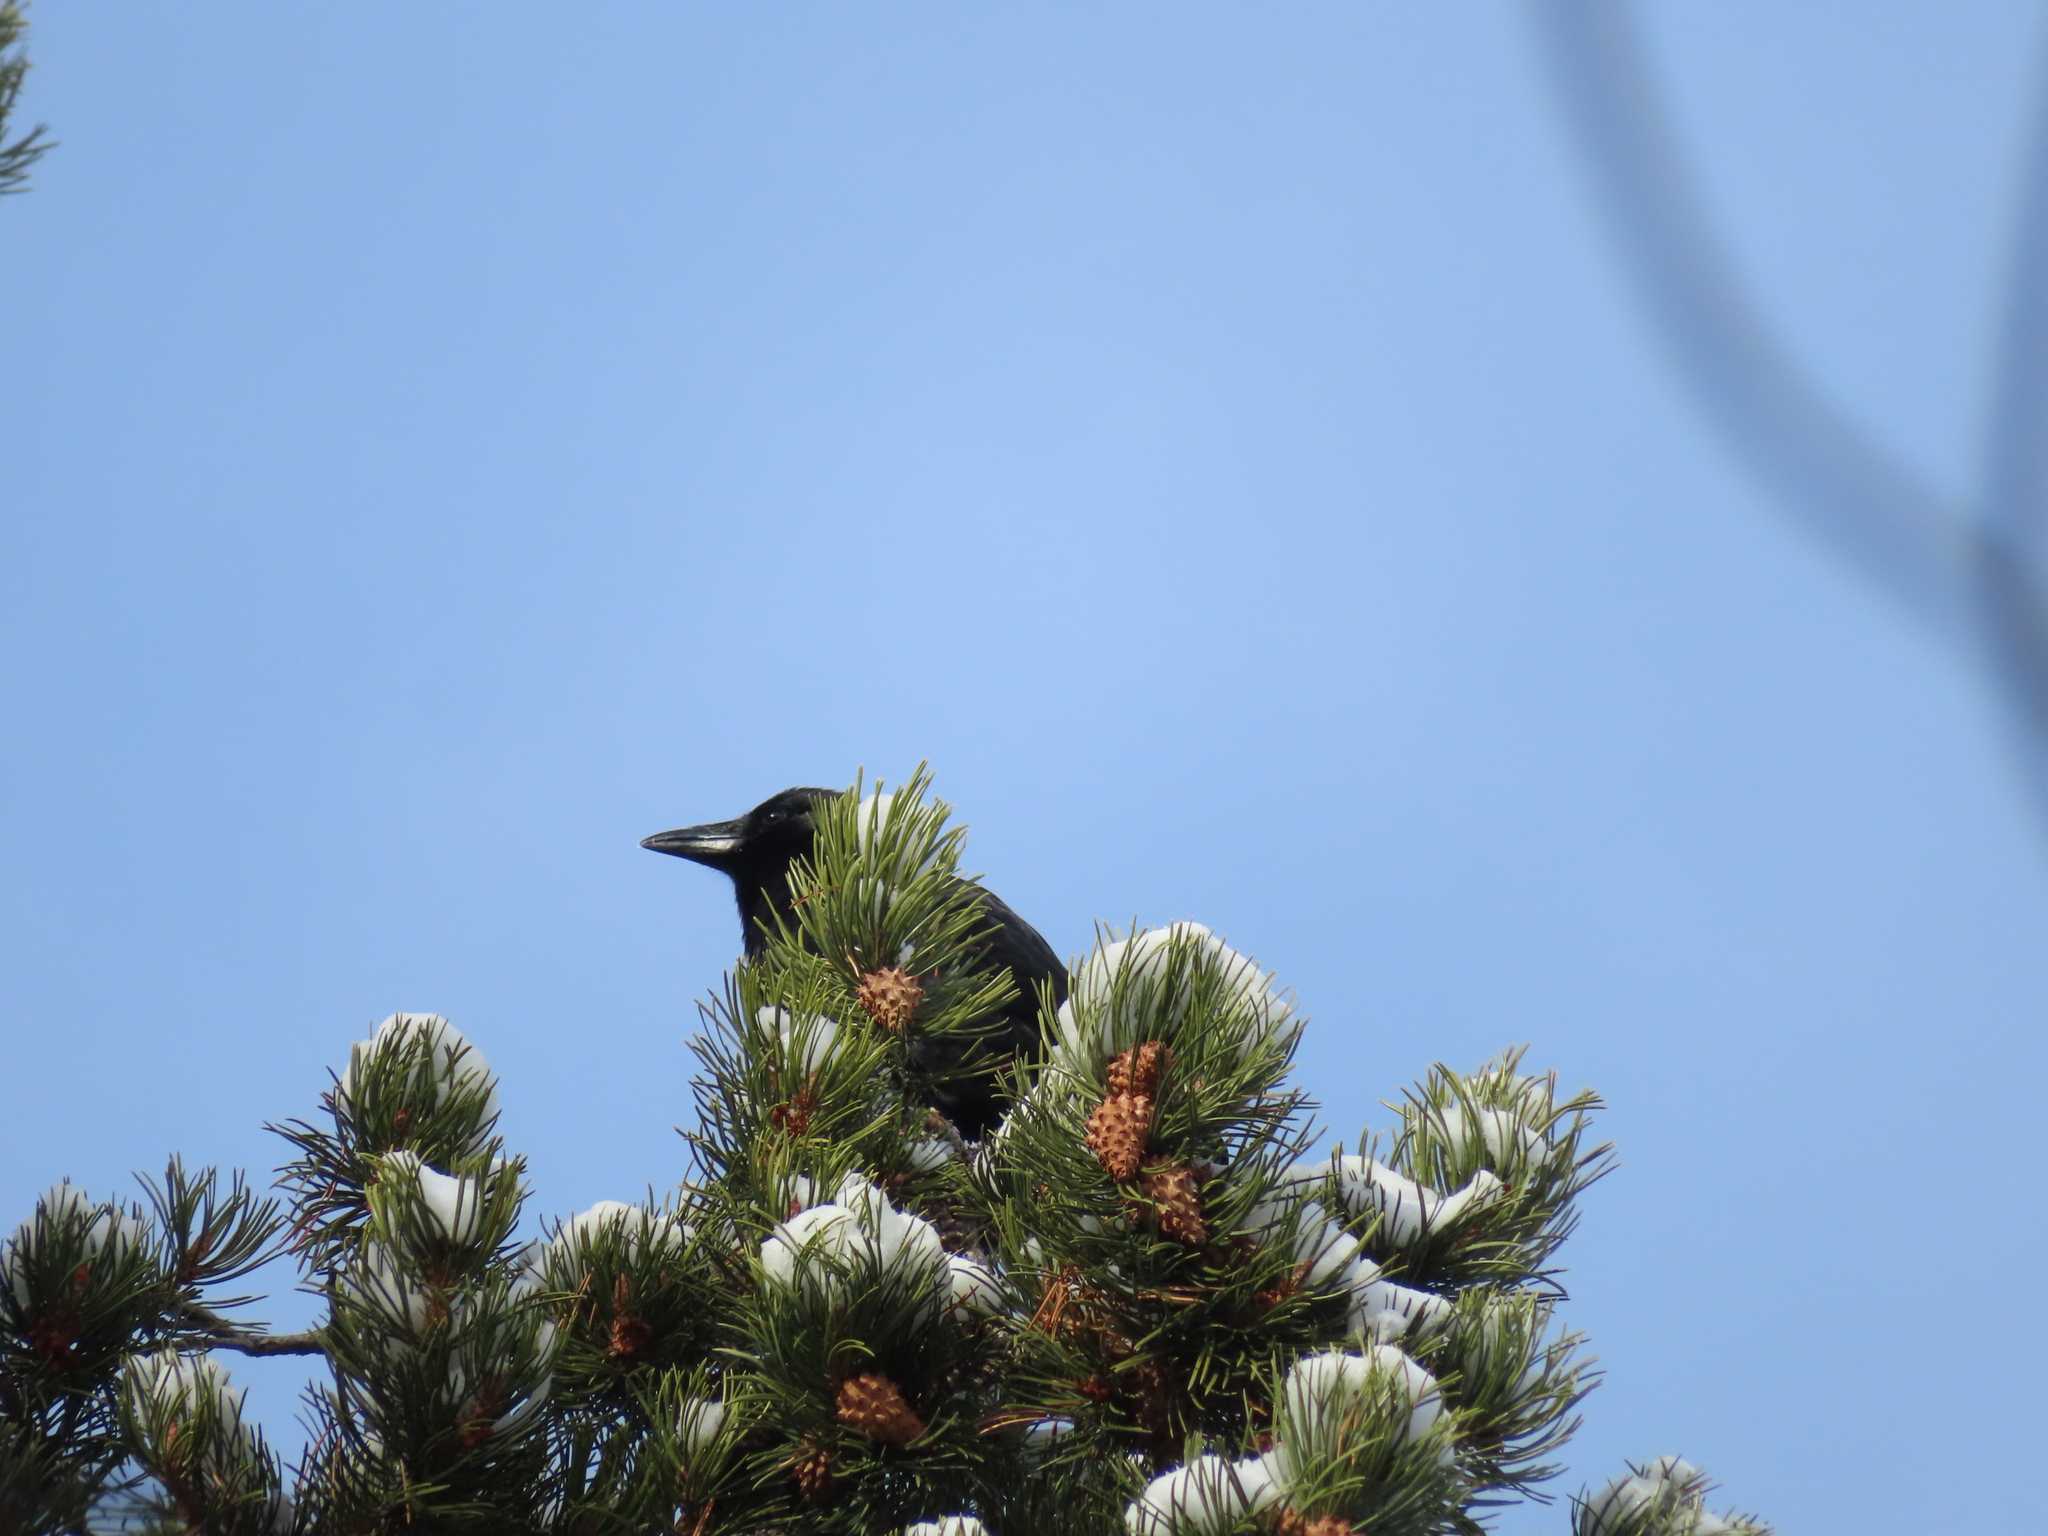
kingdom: Animalia
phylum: Chordata
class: Aves
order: Passeriformes
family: Corvidae
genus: Corvus
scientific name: Corvus brachyrhynchos
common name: American crow
